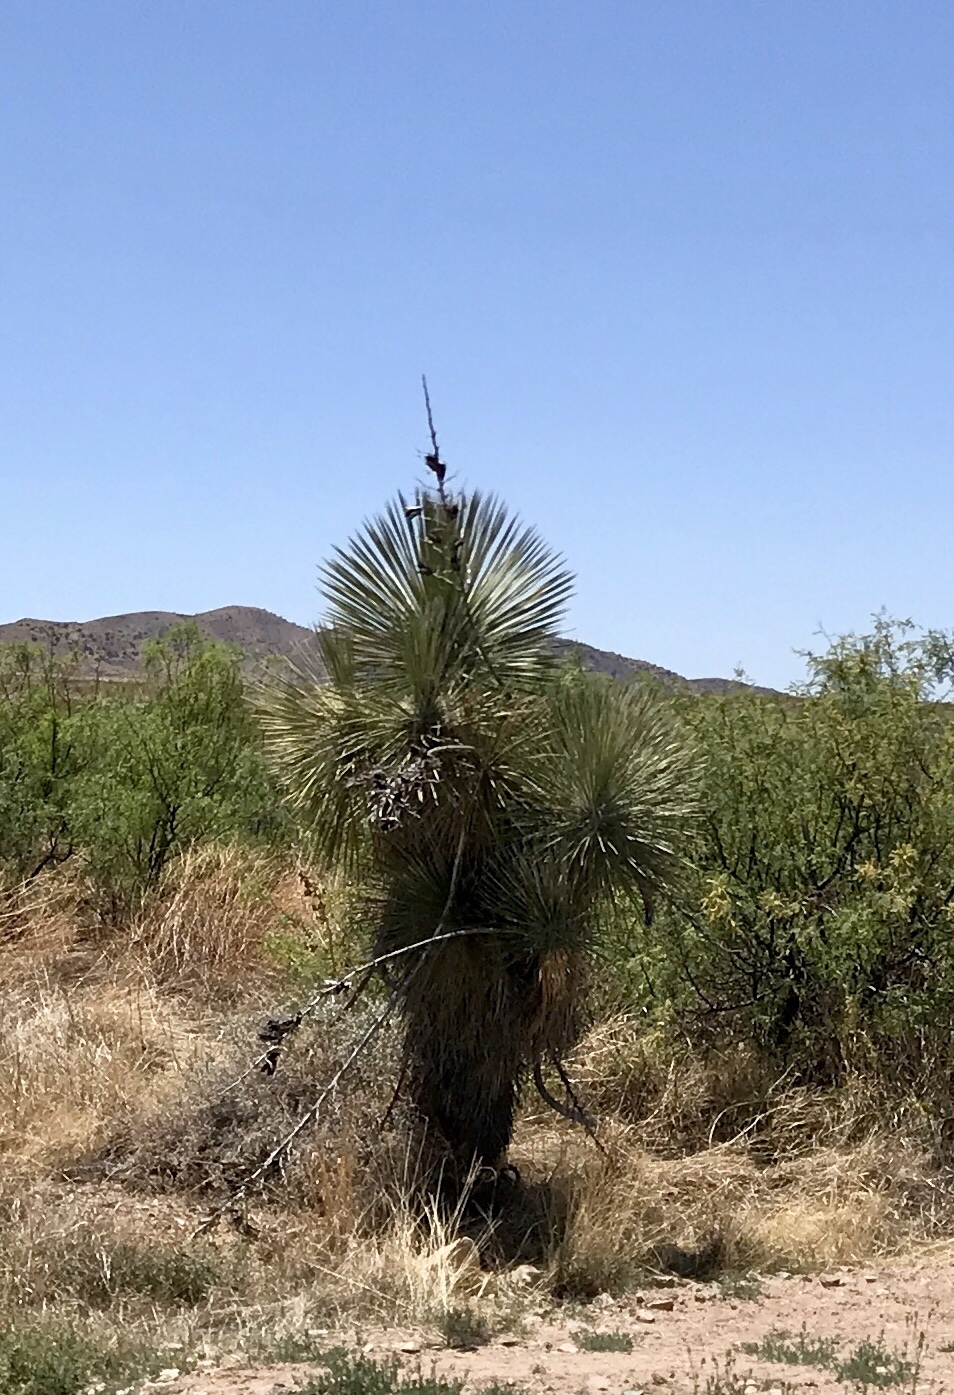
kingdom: Plantae
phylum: Tracheophyta
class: Liliopsida
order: Asparagales
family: Asparagaceae
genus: Yucca
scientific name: Yucca elata
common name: Palmella
